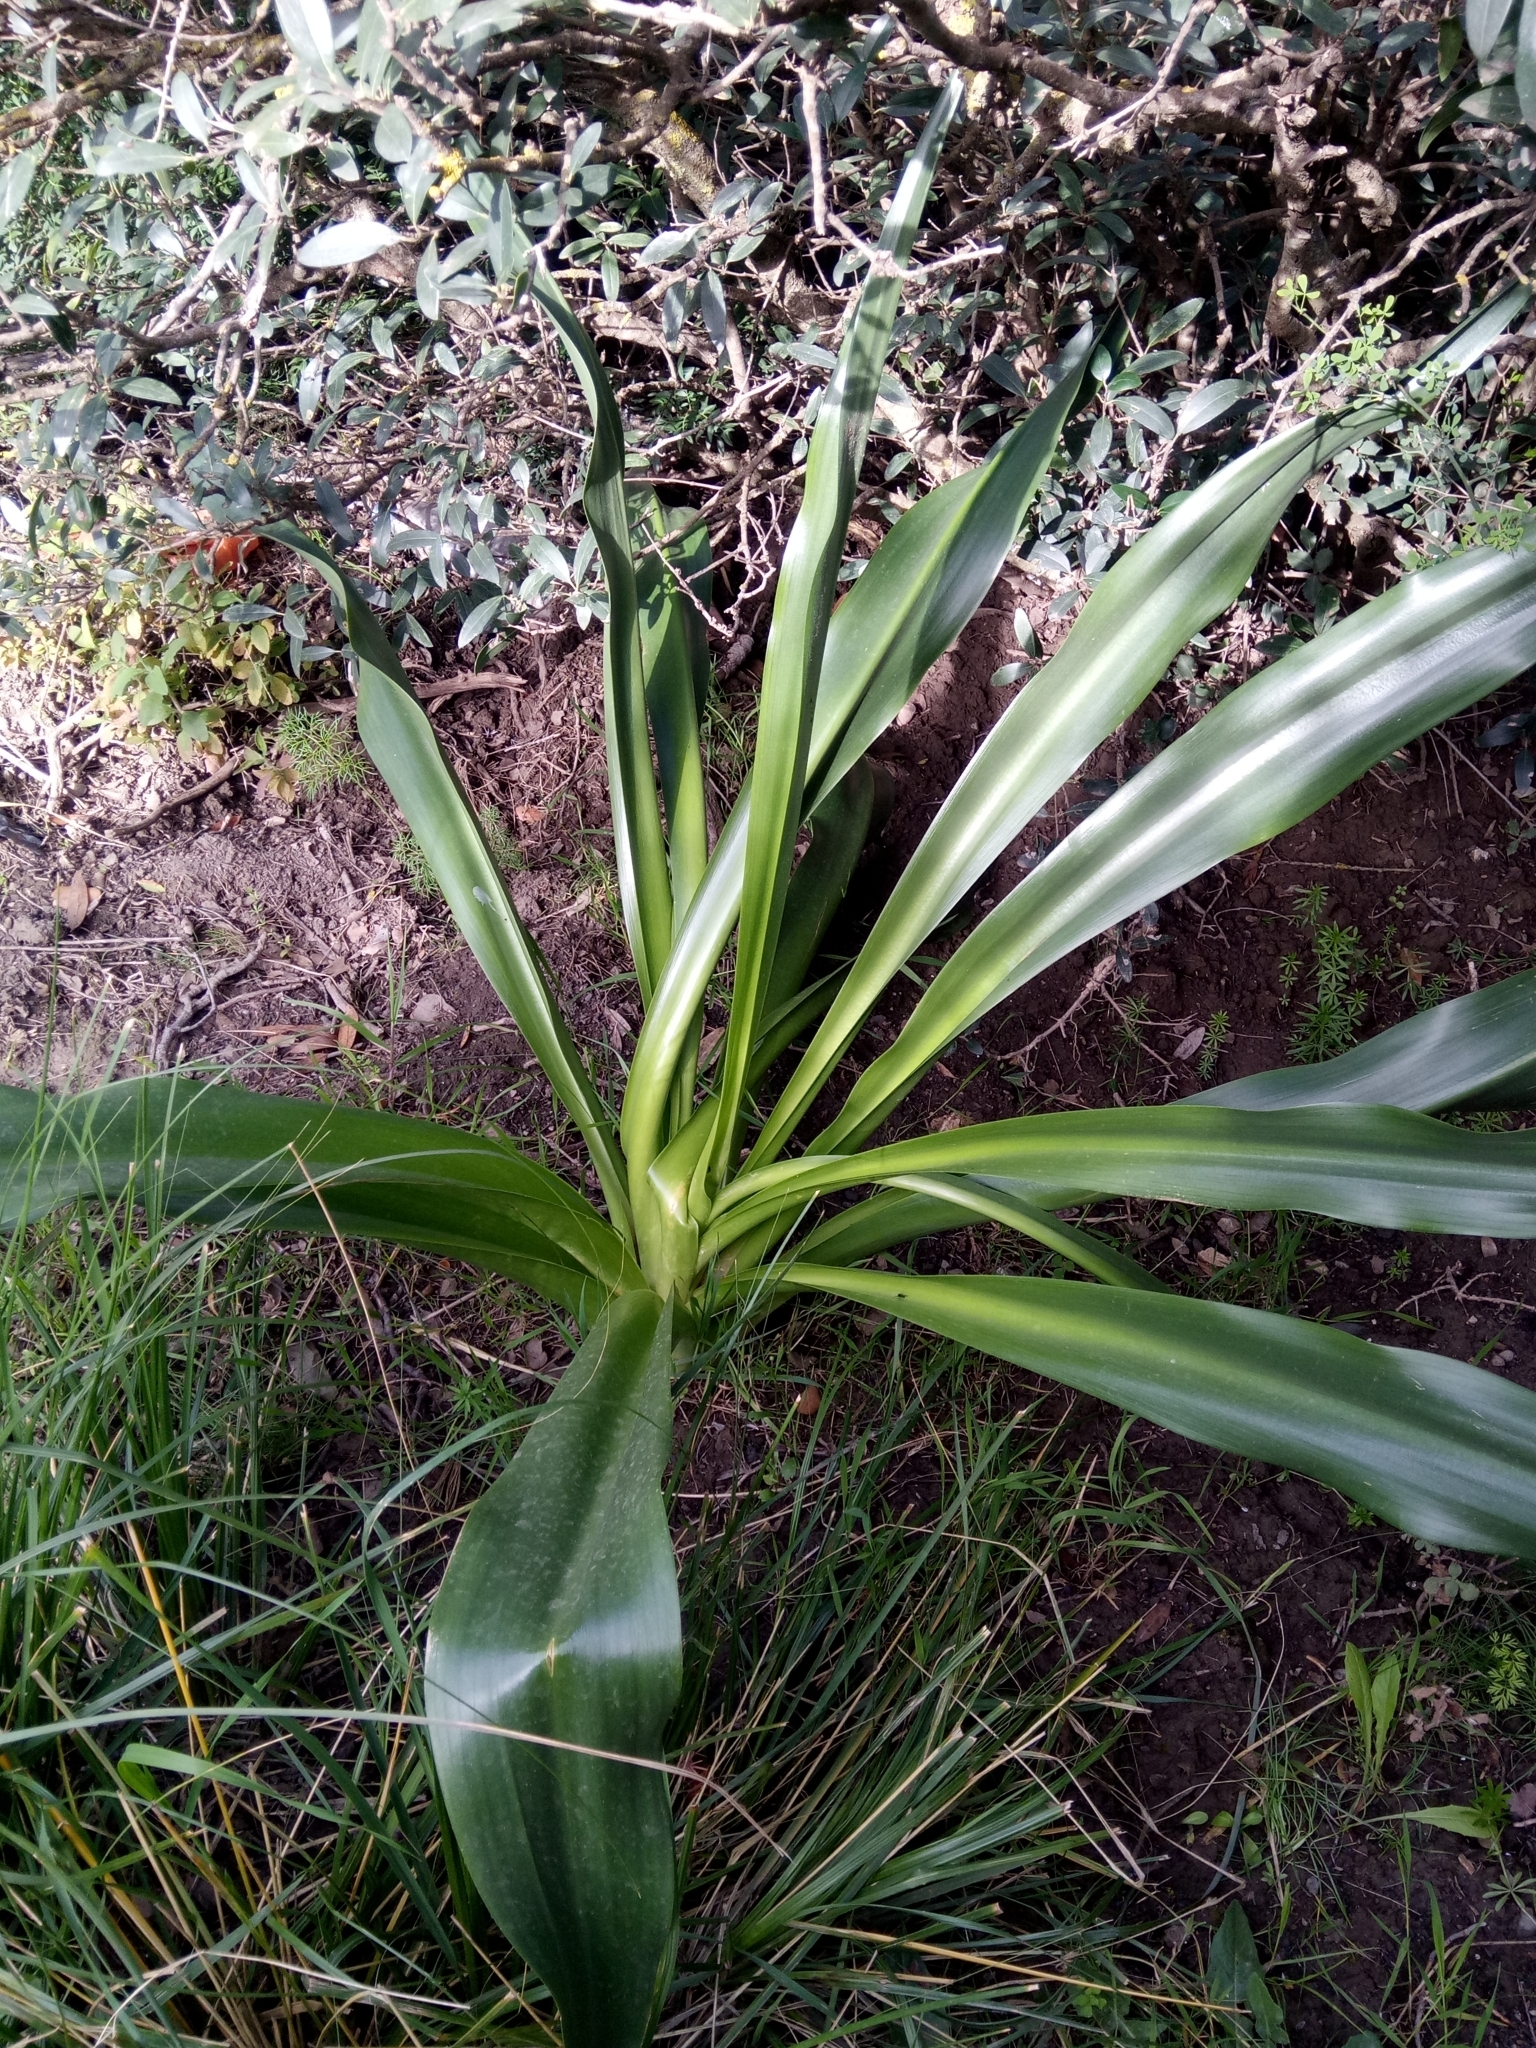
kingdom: Plantae
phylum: Tracheophyta
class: Liliopsida
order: Asparagales
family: Orchidaceae
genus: Anacamptis
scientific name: Anacamptis papilionacea
